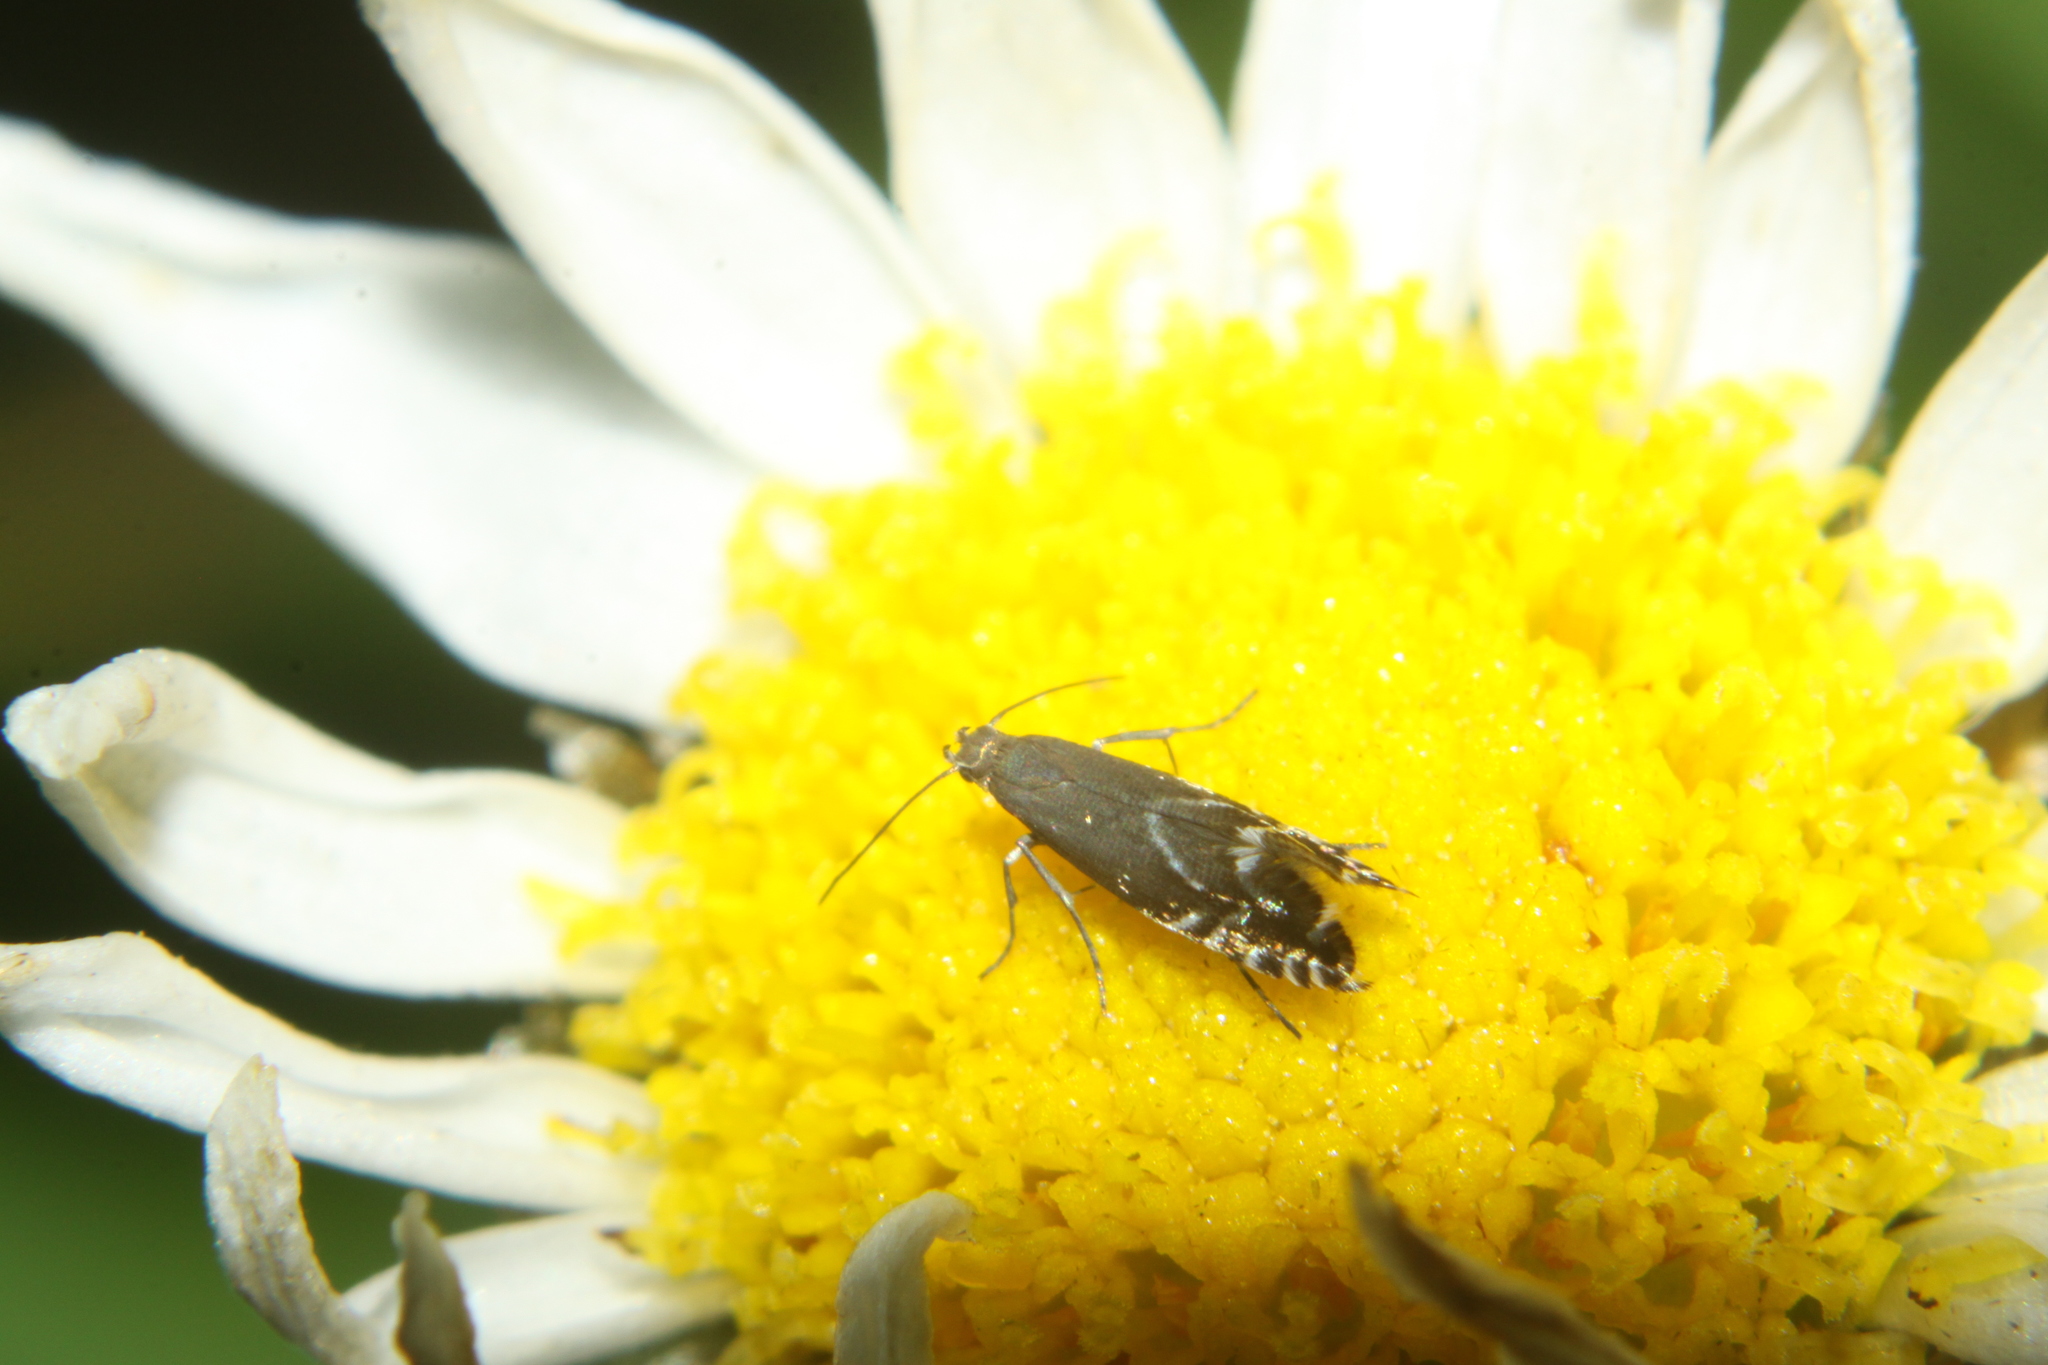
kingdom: Animalia
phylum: Arthropoda
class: Insecta
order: Lepidoptera
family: Glyphipterigidae
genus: Glyphipterix
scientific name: Glyphipterix simpliciella
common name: Cocksfoot moth
